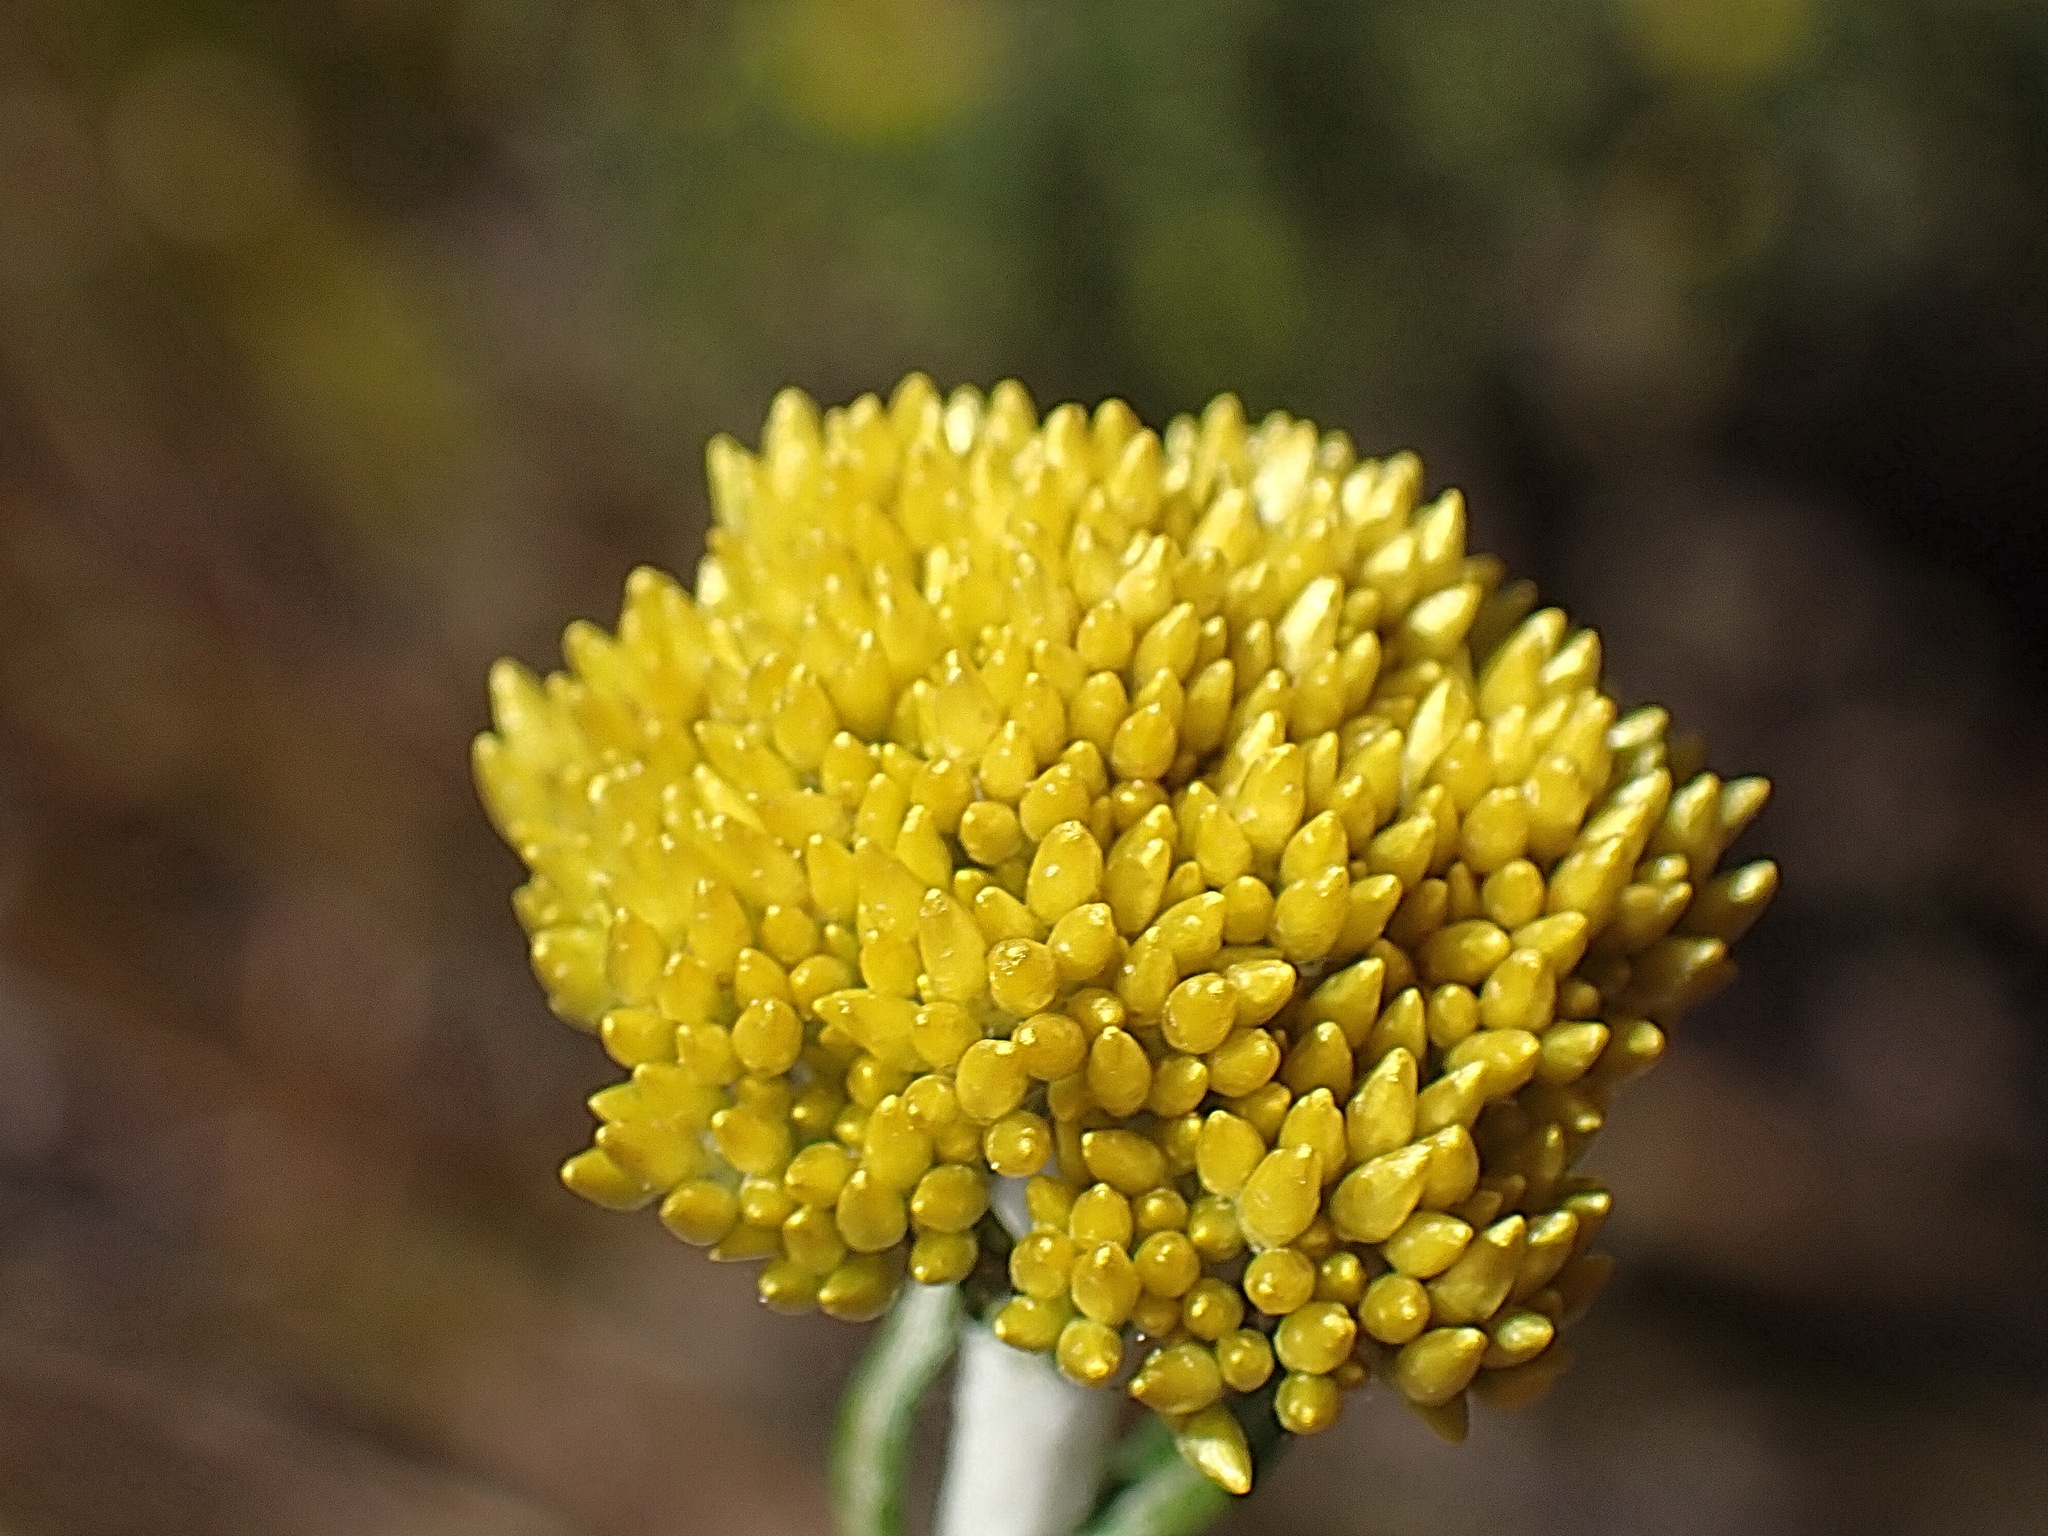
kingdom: Plantae
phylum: Tracheophyta
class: Magnoliopsida
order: Asterales
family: Asteraceae
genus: Helichrysum
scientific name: Helichrysum cymosum
